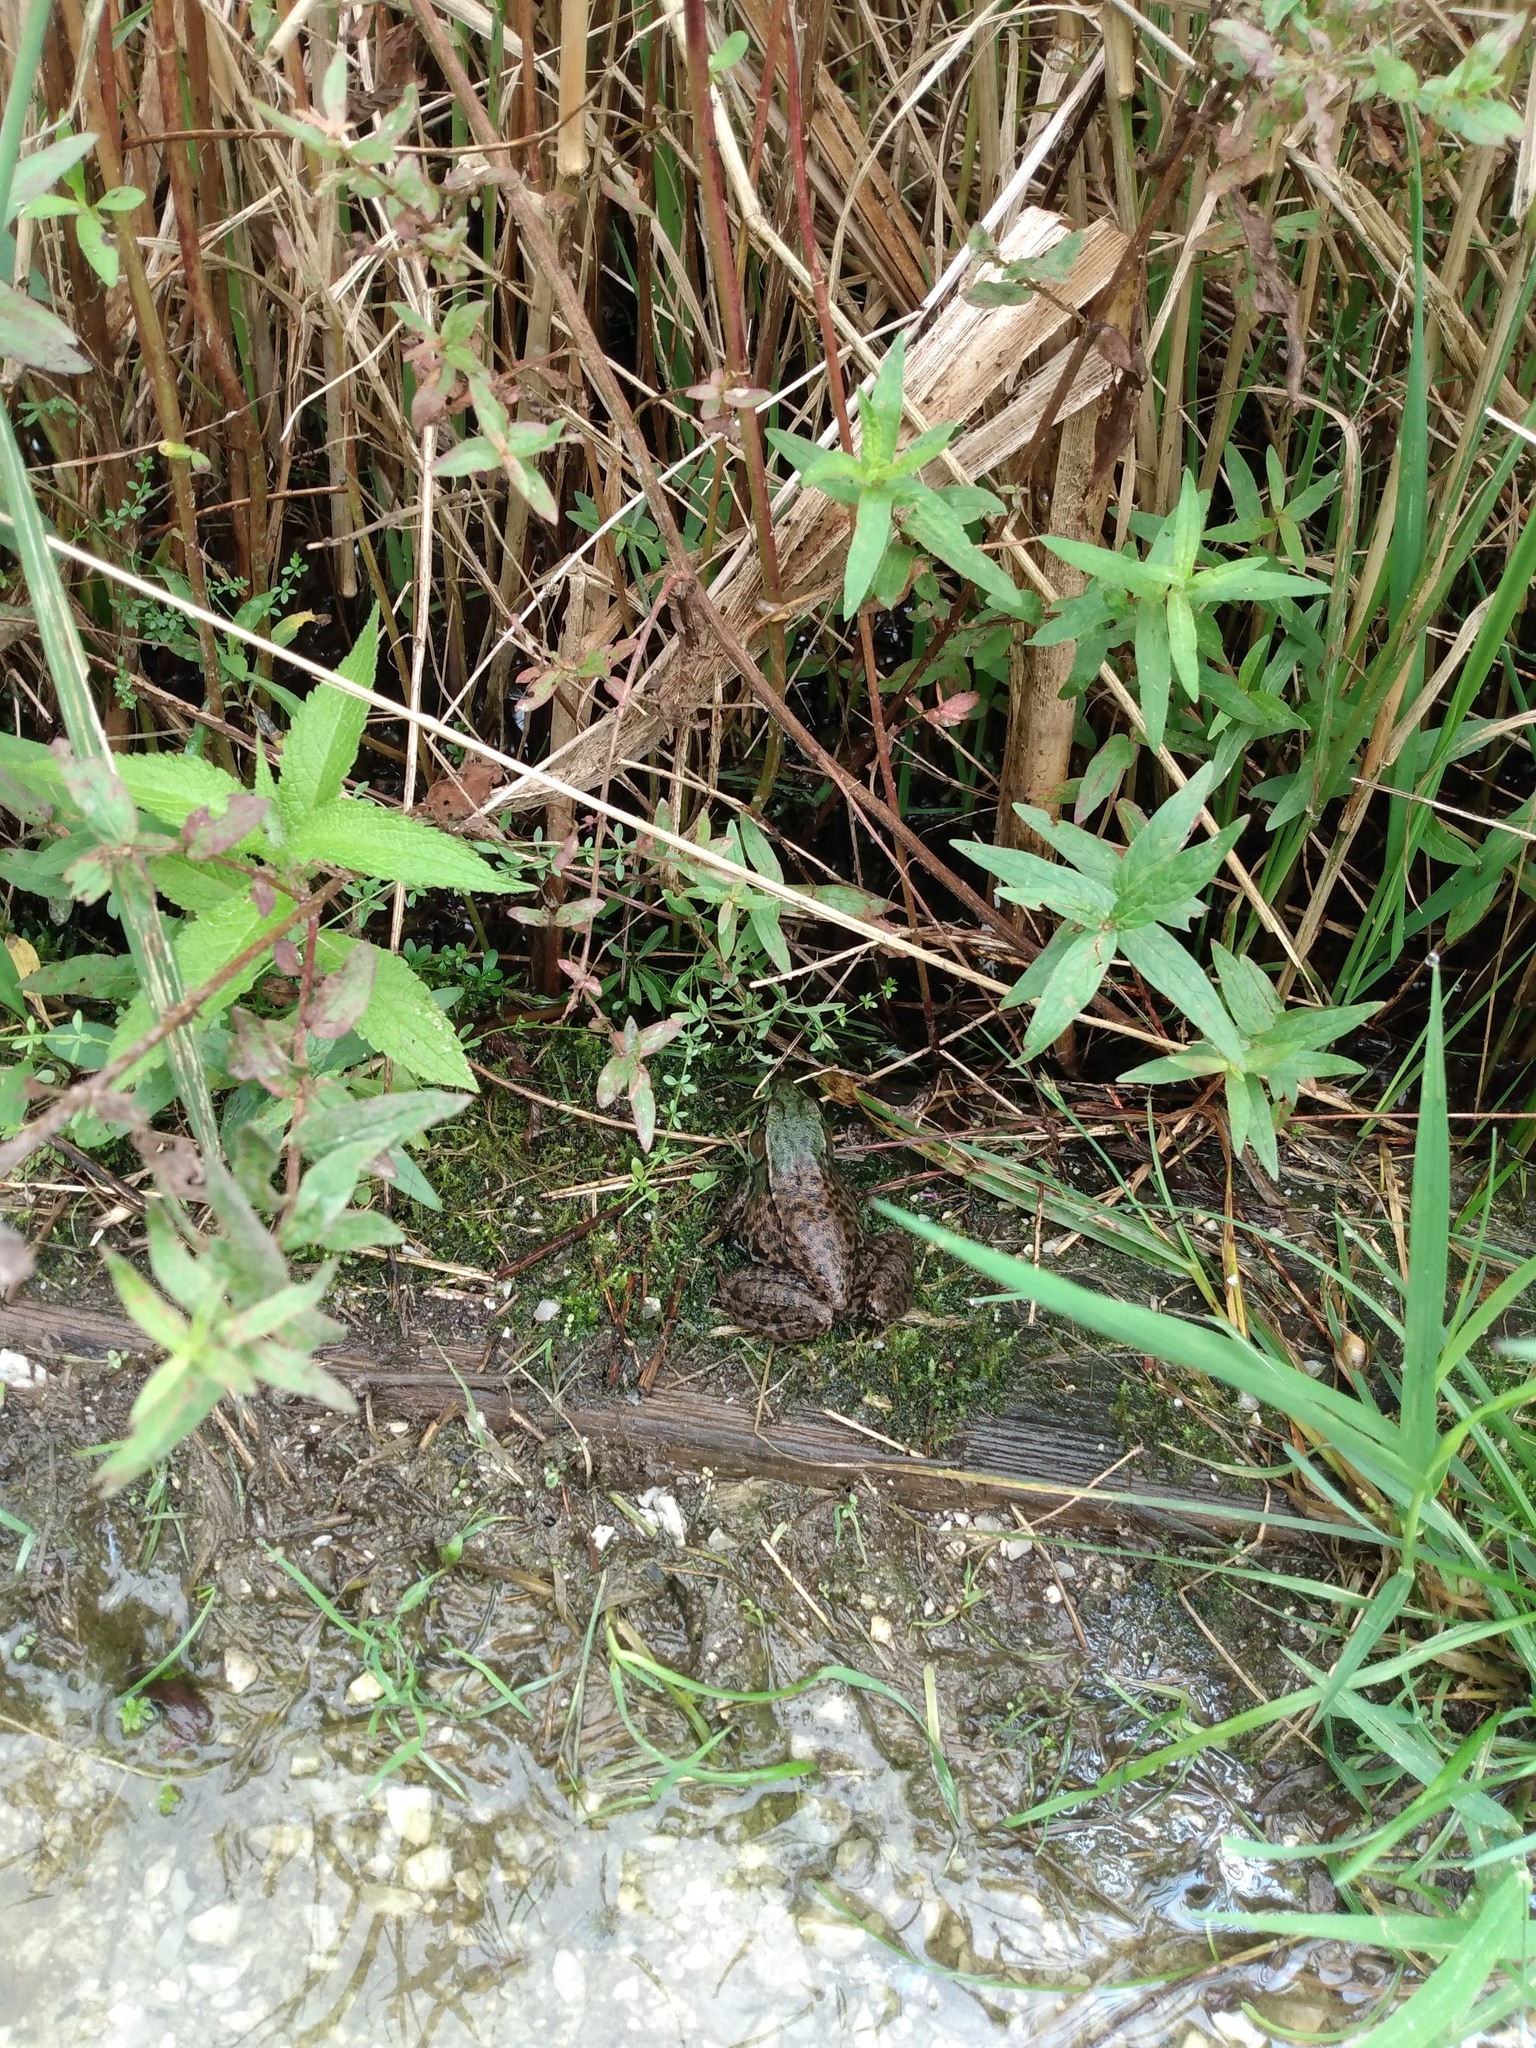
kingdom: Animalia
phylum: Chordata
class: Amphibia
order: Anura
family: Ranidae
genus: Lithobates
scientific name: Lithobates clamitans
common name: Green frog
